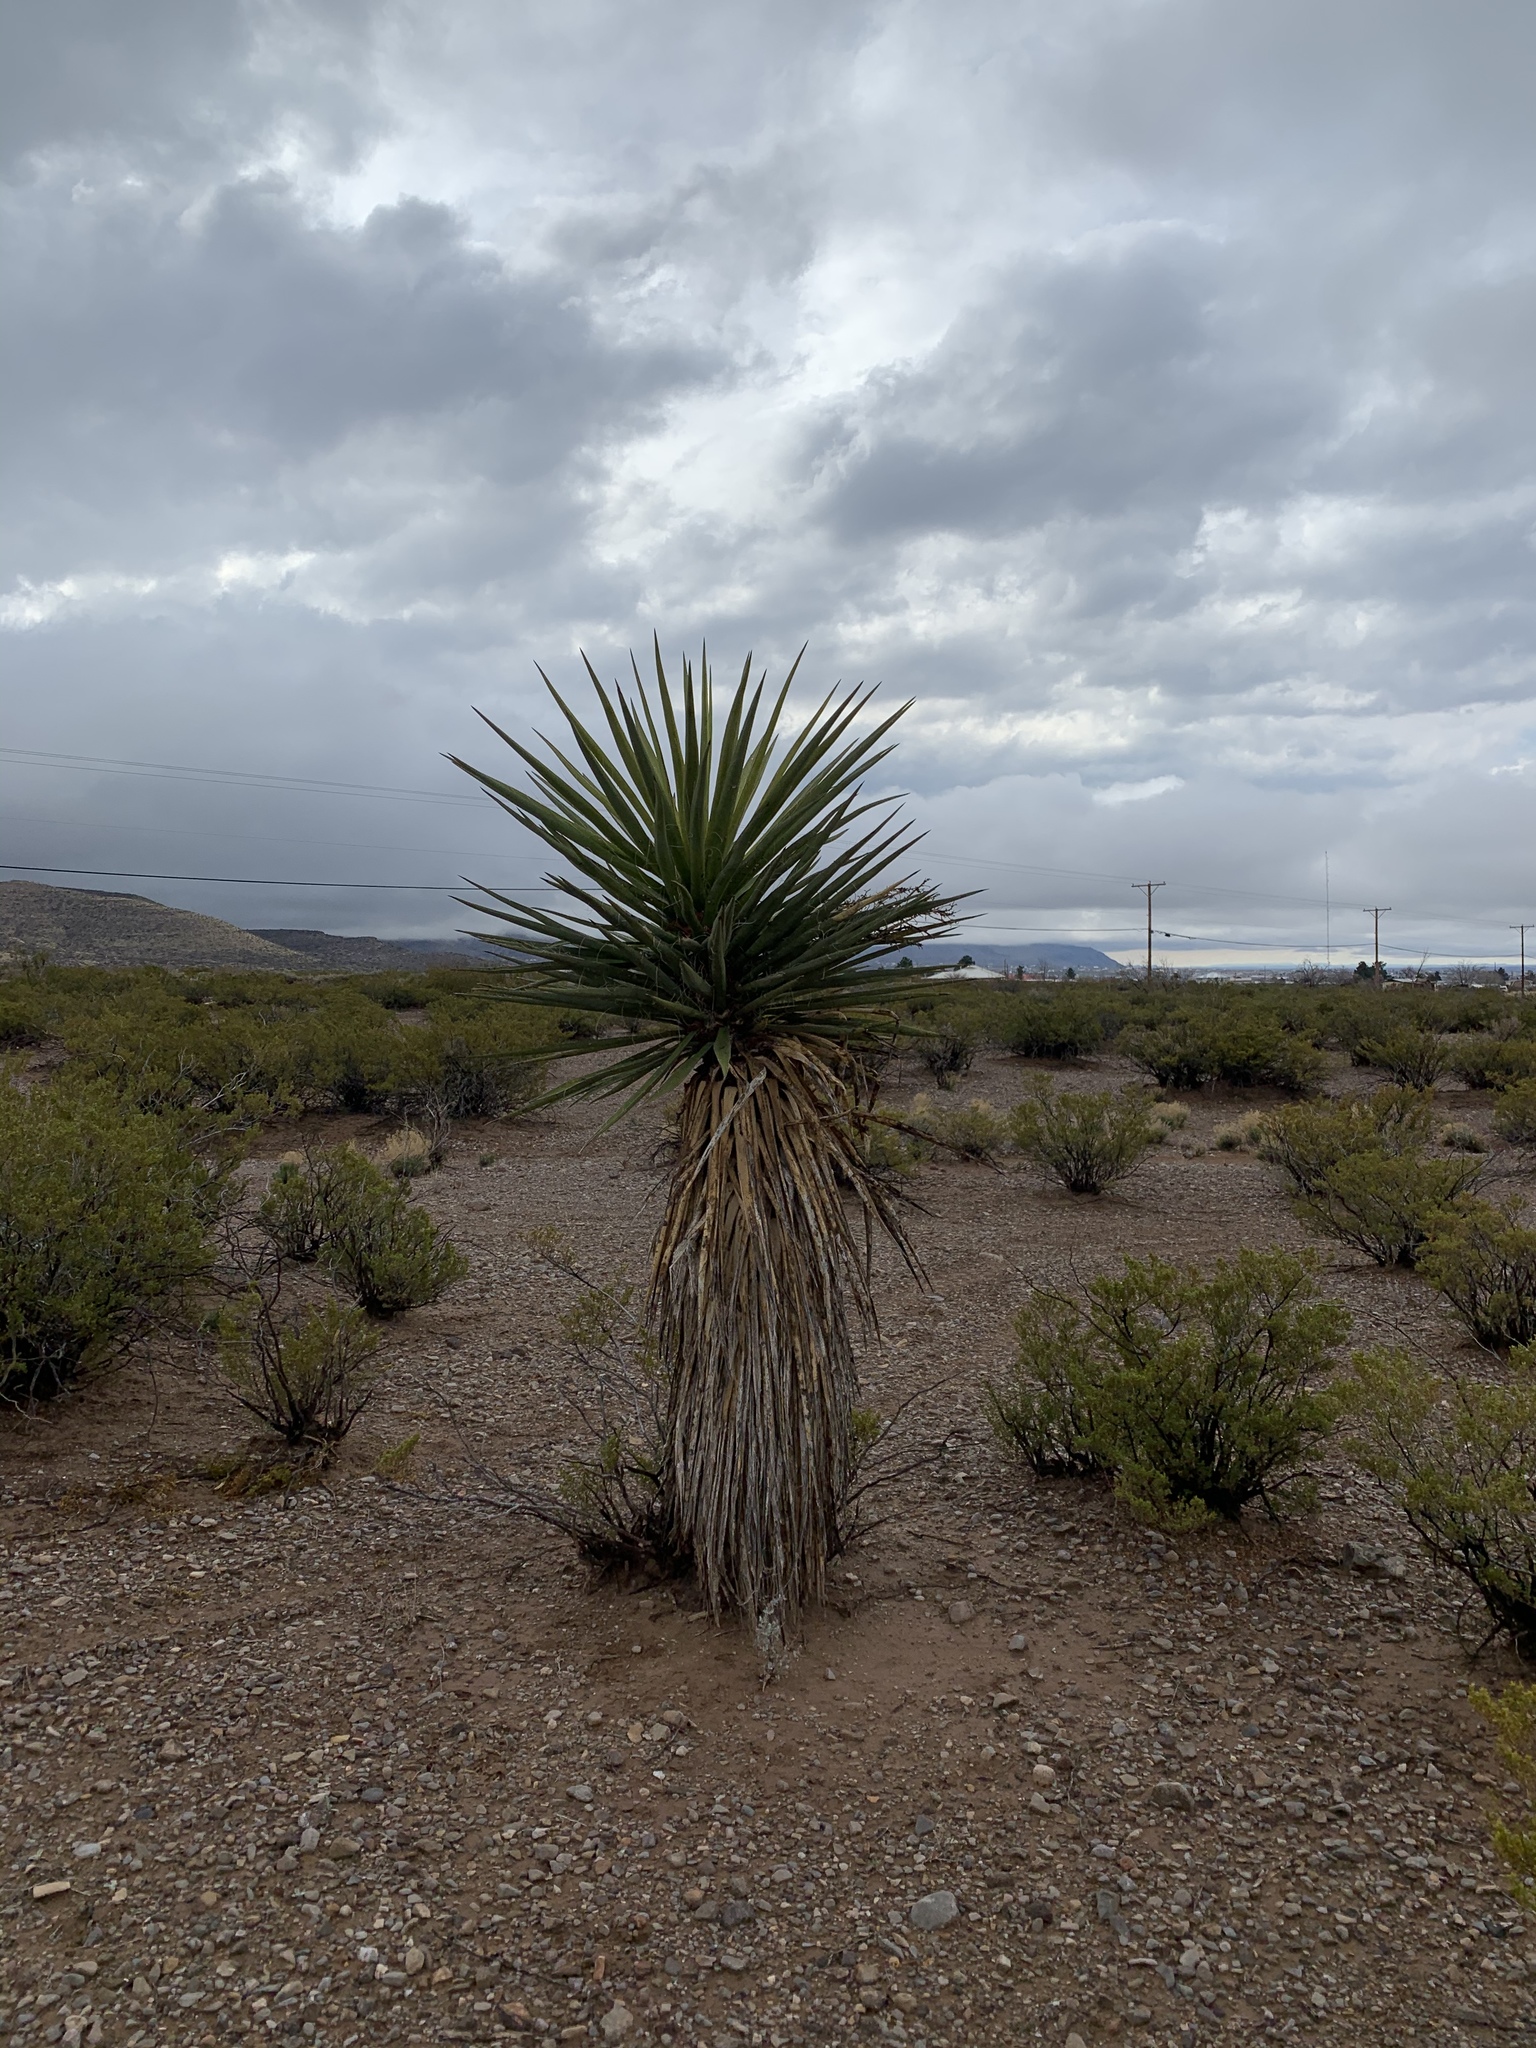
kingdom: Plantae
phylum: Tracheophyta
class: Liliopsida
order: Asparagales
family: Asparagaceae
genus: Yucca
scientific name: Yucca treculiana
